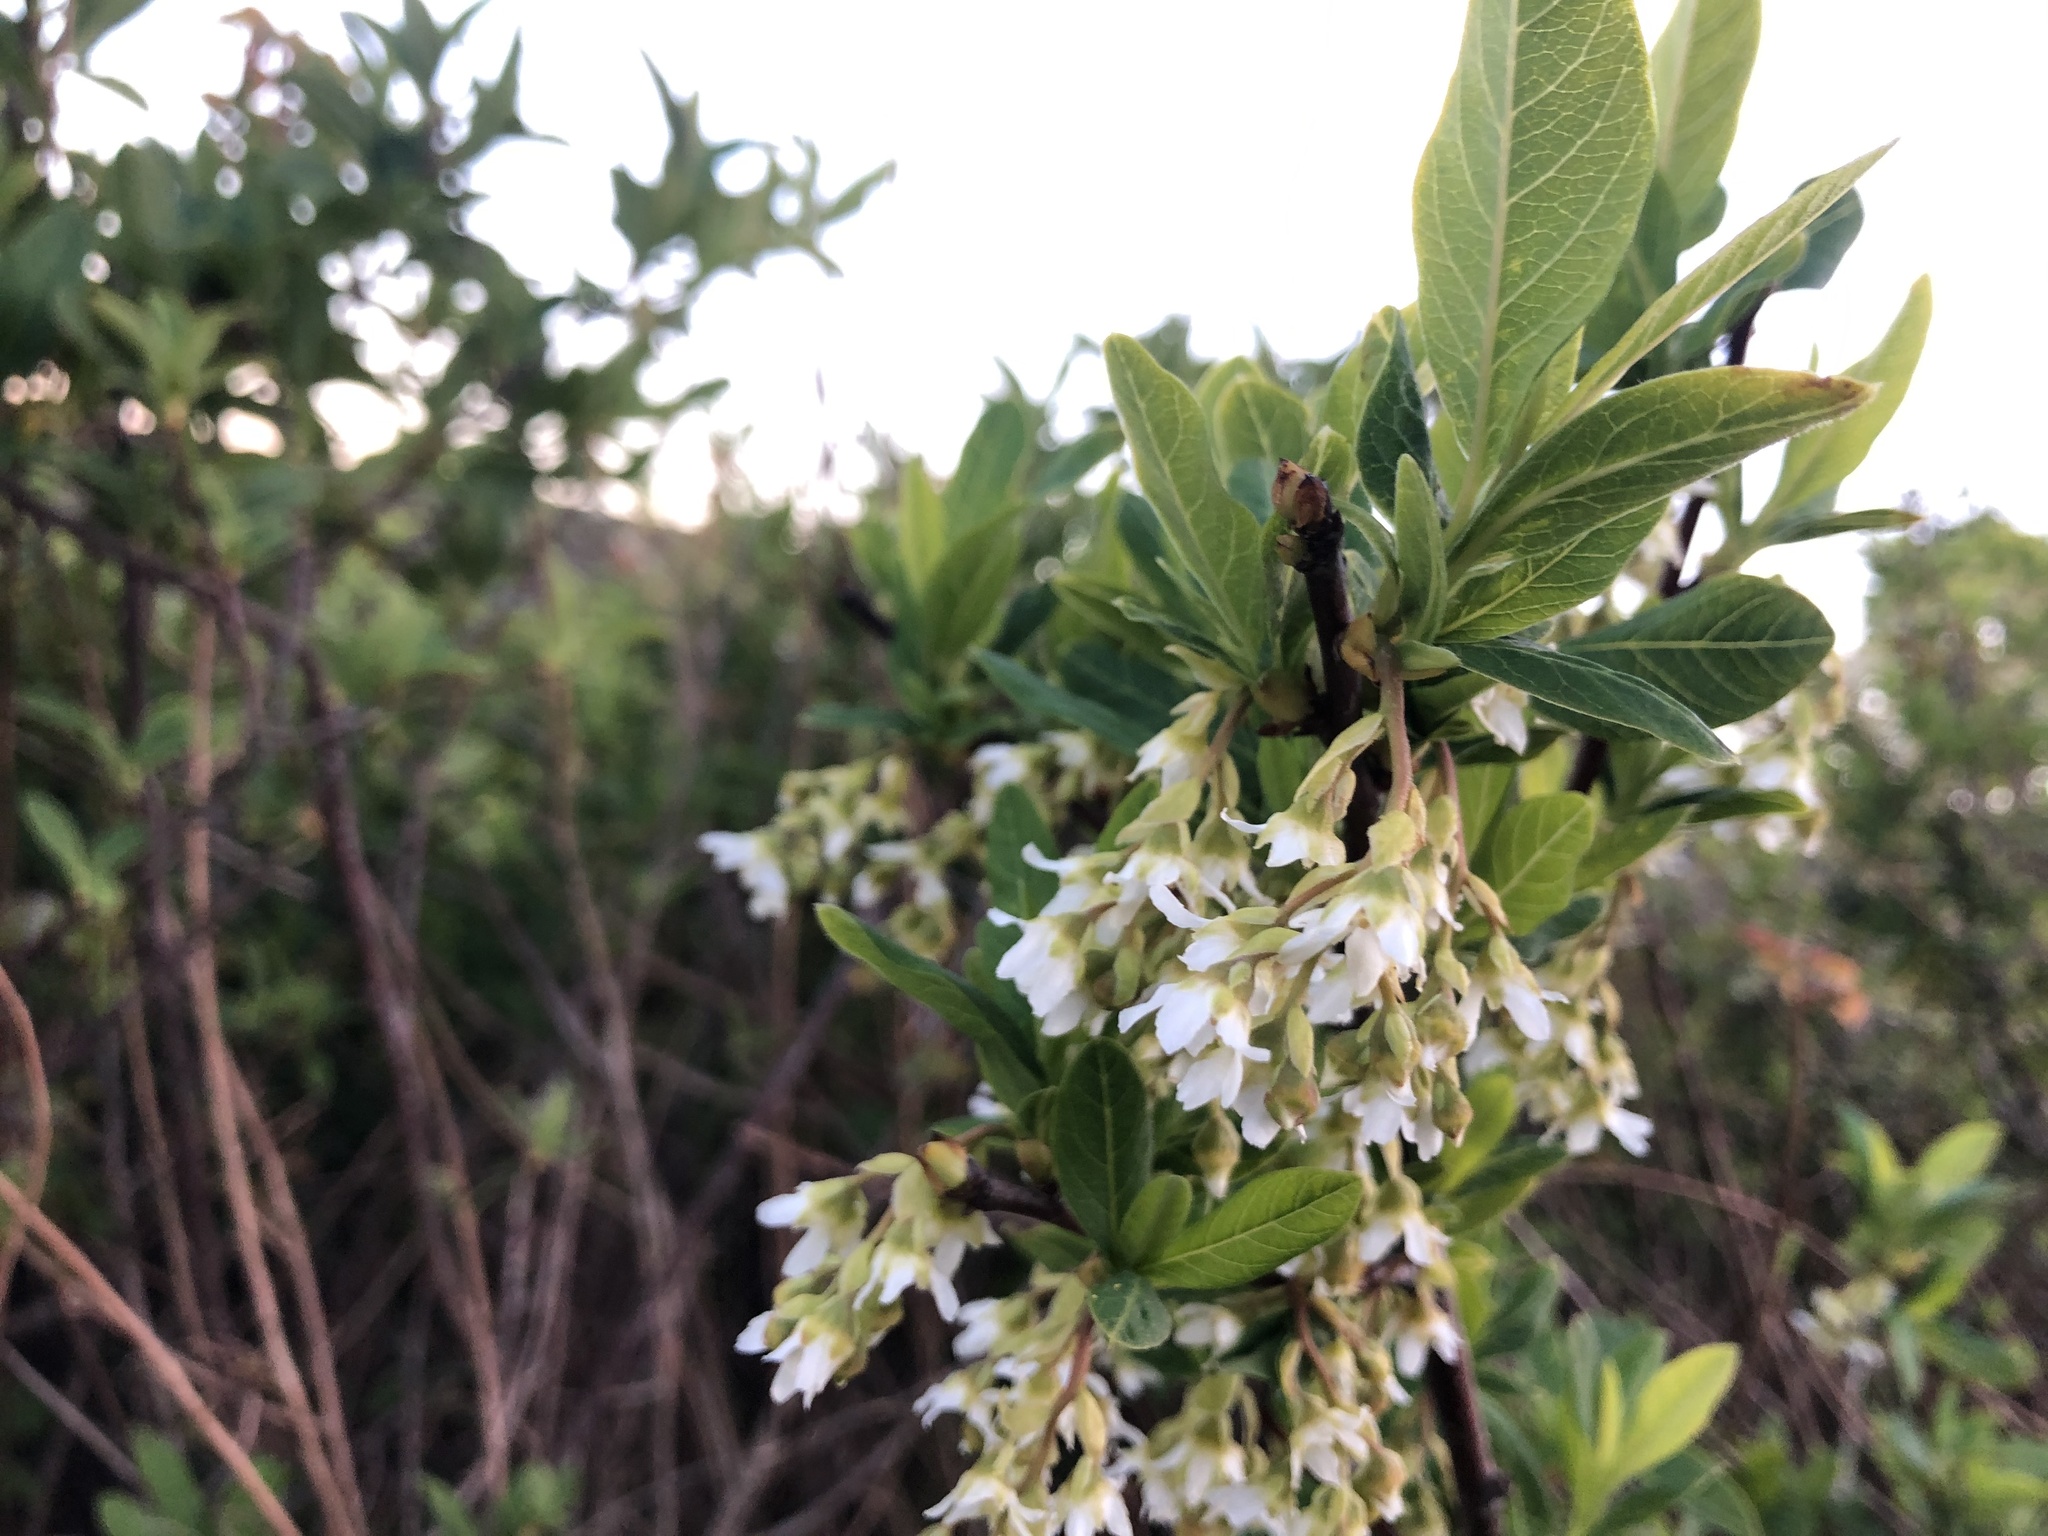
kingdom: Plantae
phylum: Tracheophyta
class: Magnoliopsida
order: Rosales
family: Rosaceae
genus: Oemleria
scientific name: Oemleria cerasiformis
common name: Osoberry
